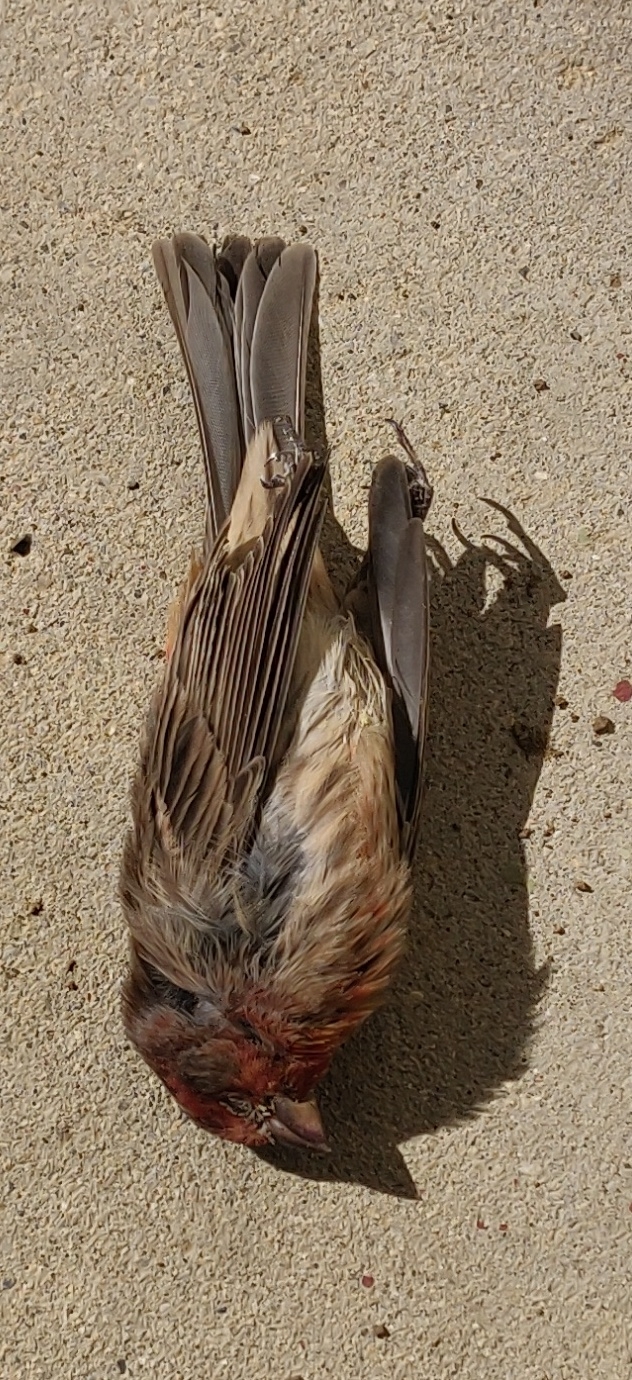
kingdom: Animalia
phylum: Chordata
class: Aves
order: Passeriformes
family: Fringillidae
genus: Haemorhous
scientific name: Haemorhous mexicanus
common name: House finch
